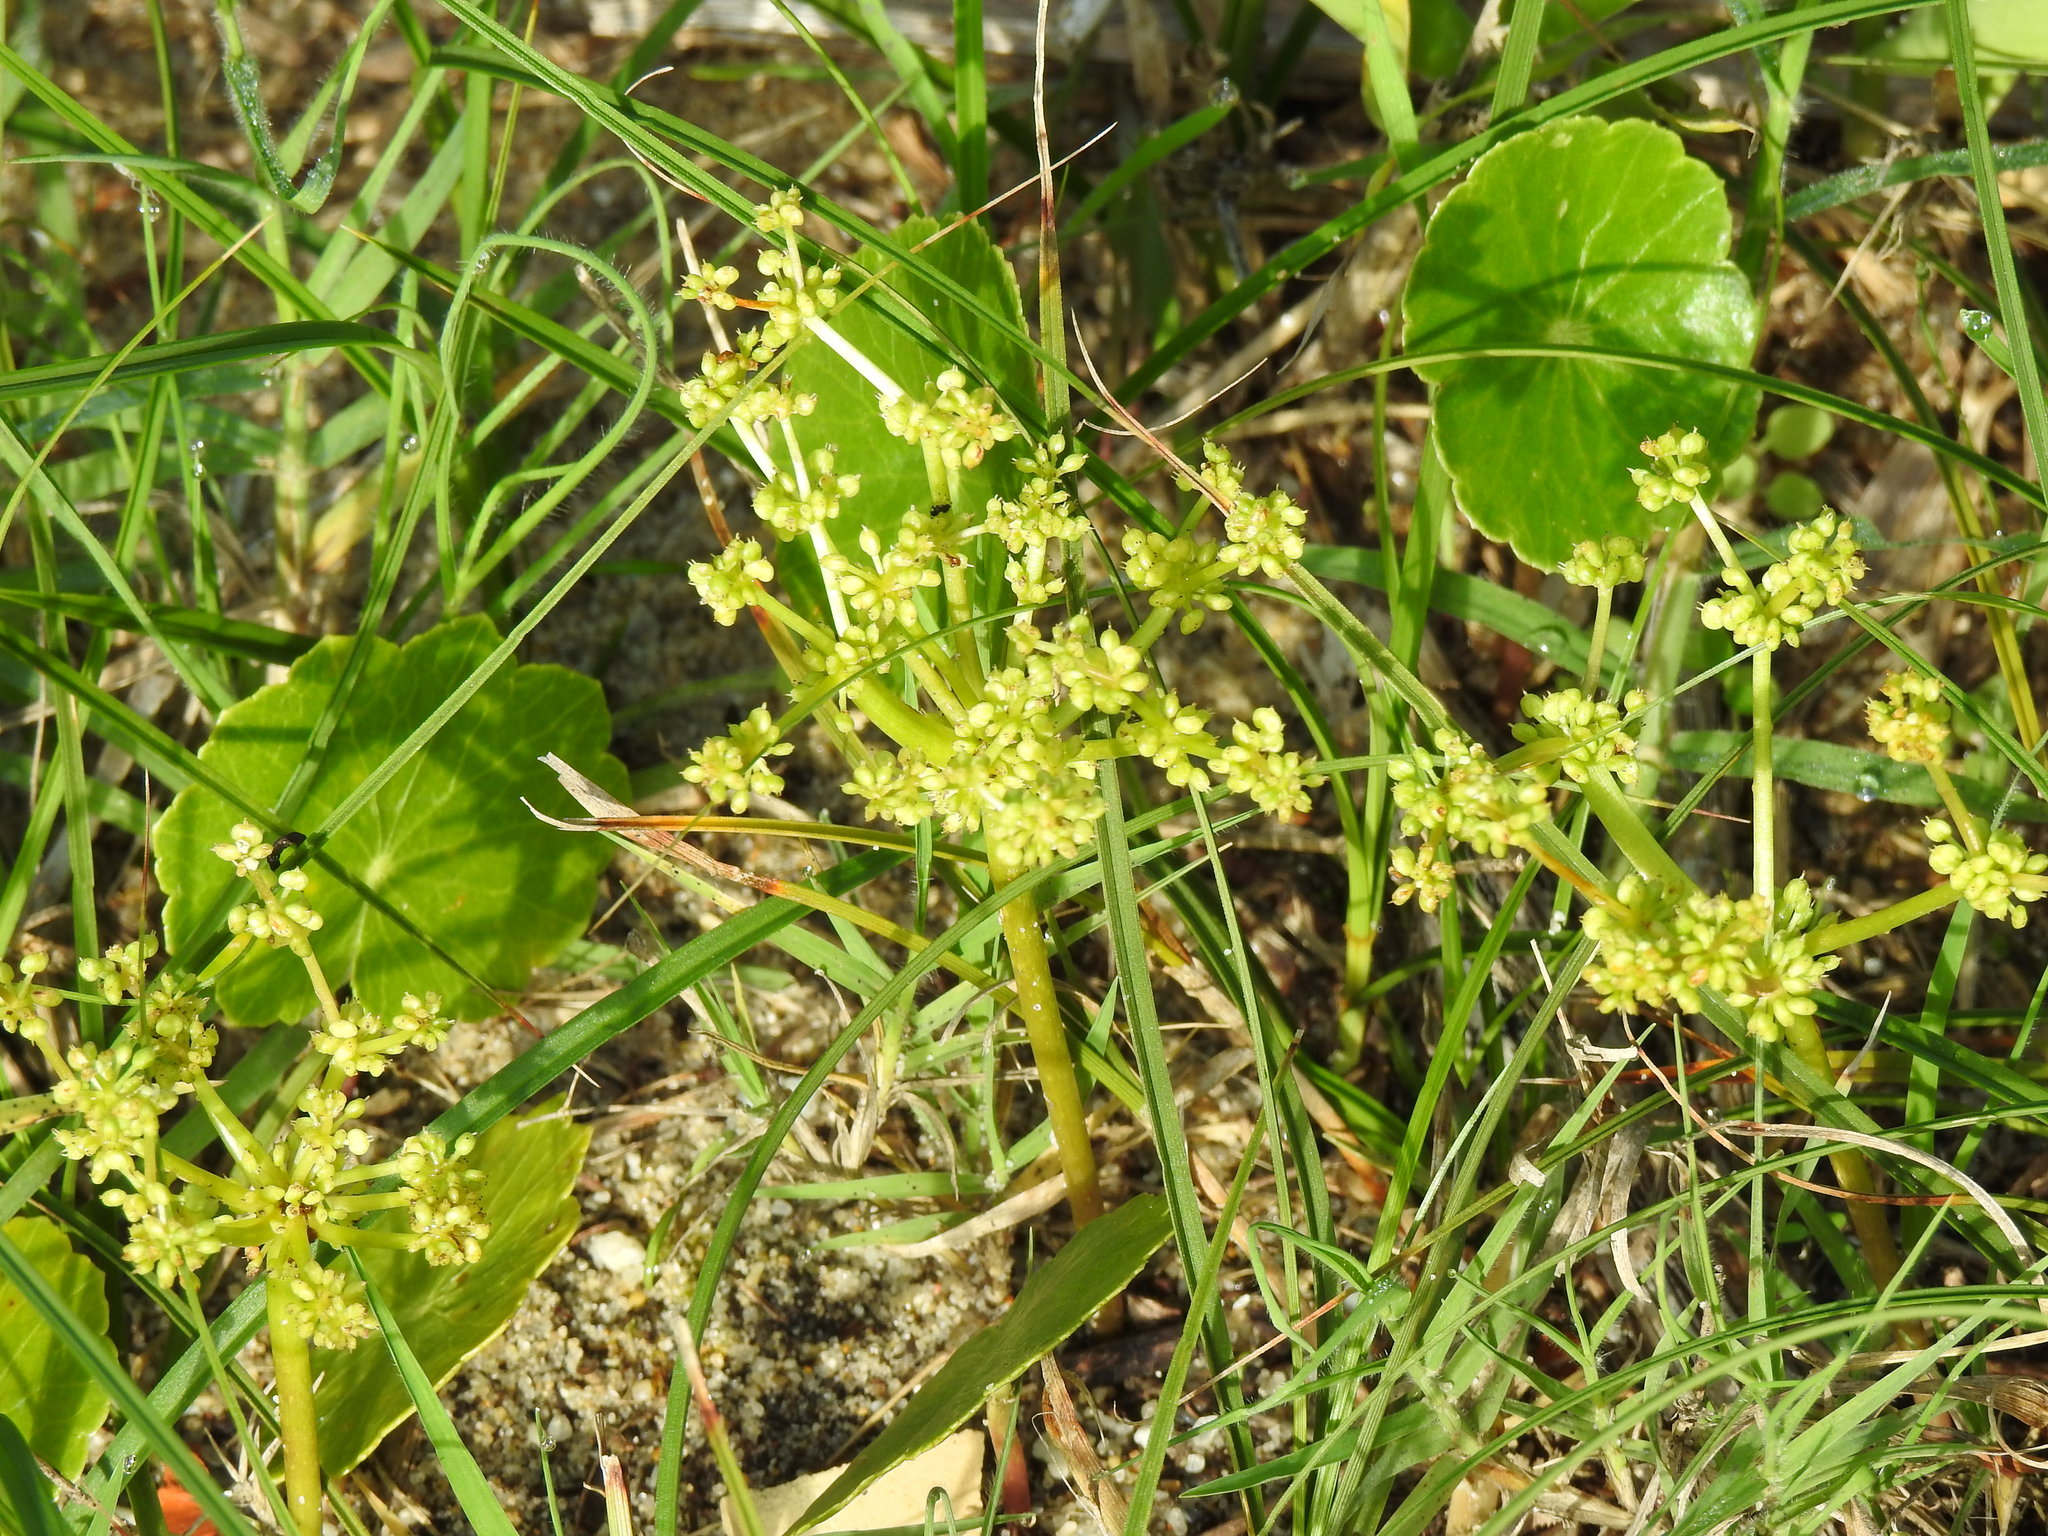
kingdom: Plantae
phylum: Tracheophyta
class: Magnoliopsida
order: Apiales
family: Araliaceae
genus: Hydrocotyle
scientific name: Hydrocotyle bonariensis
